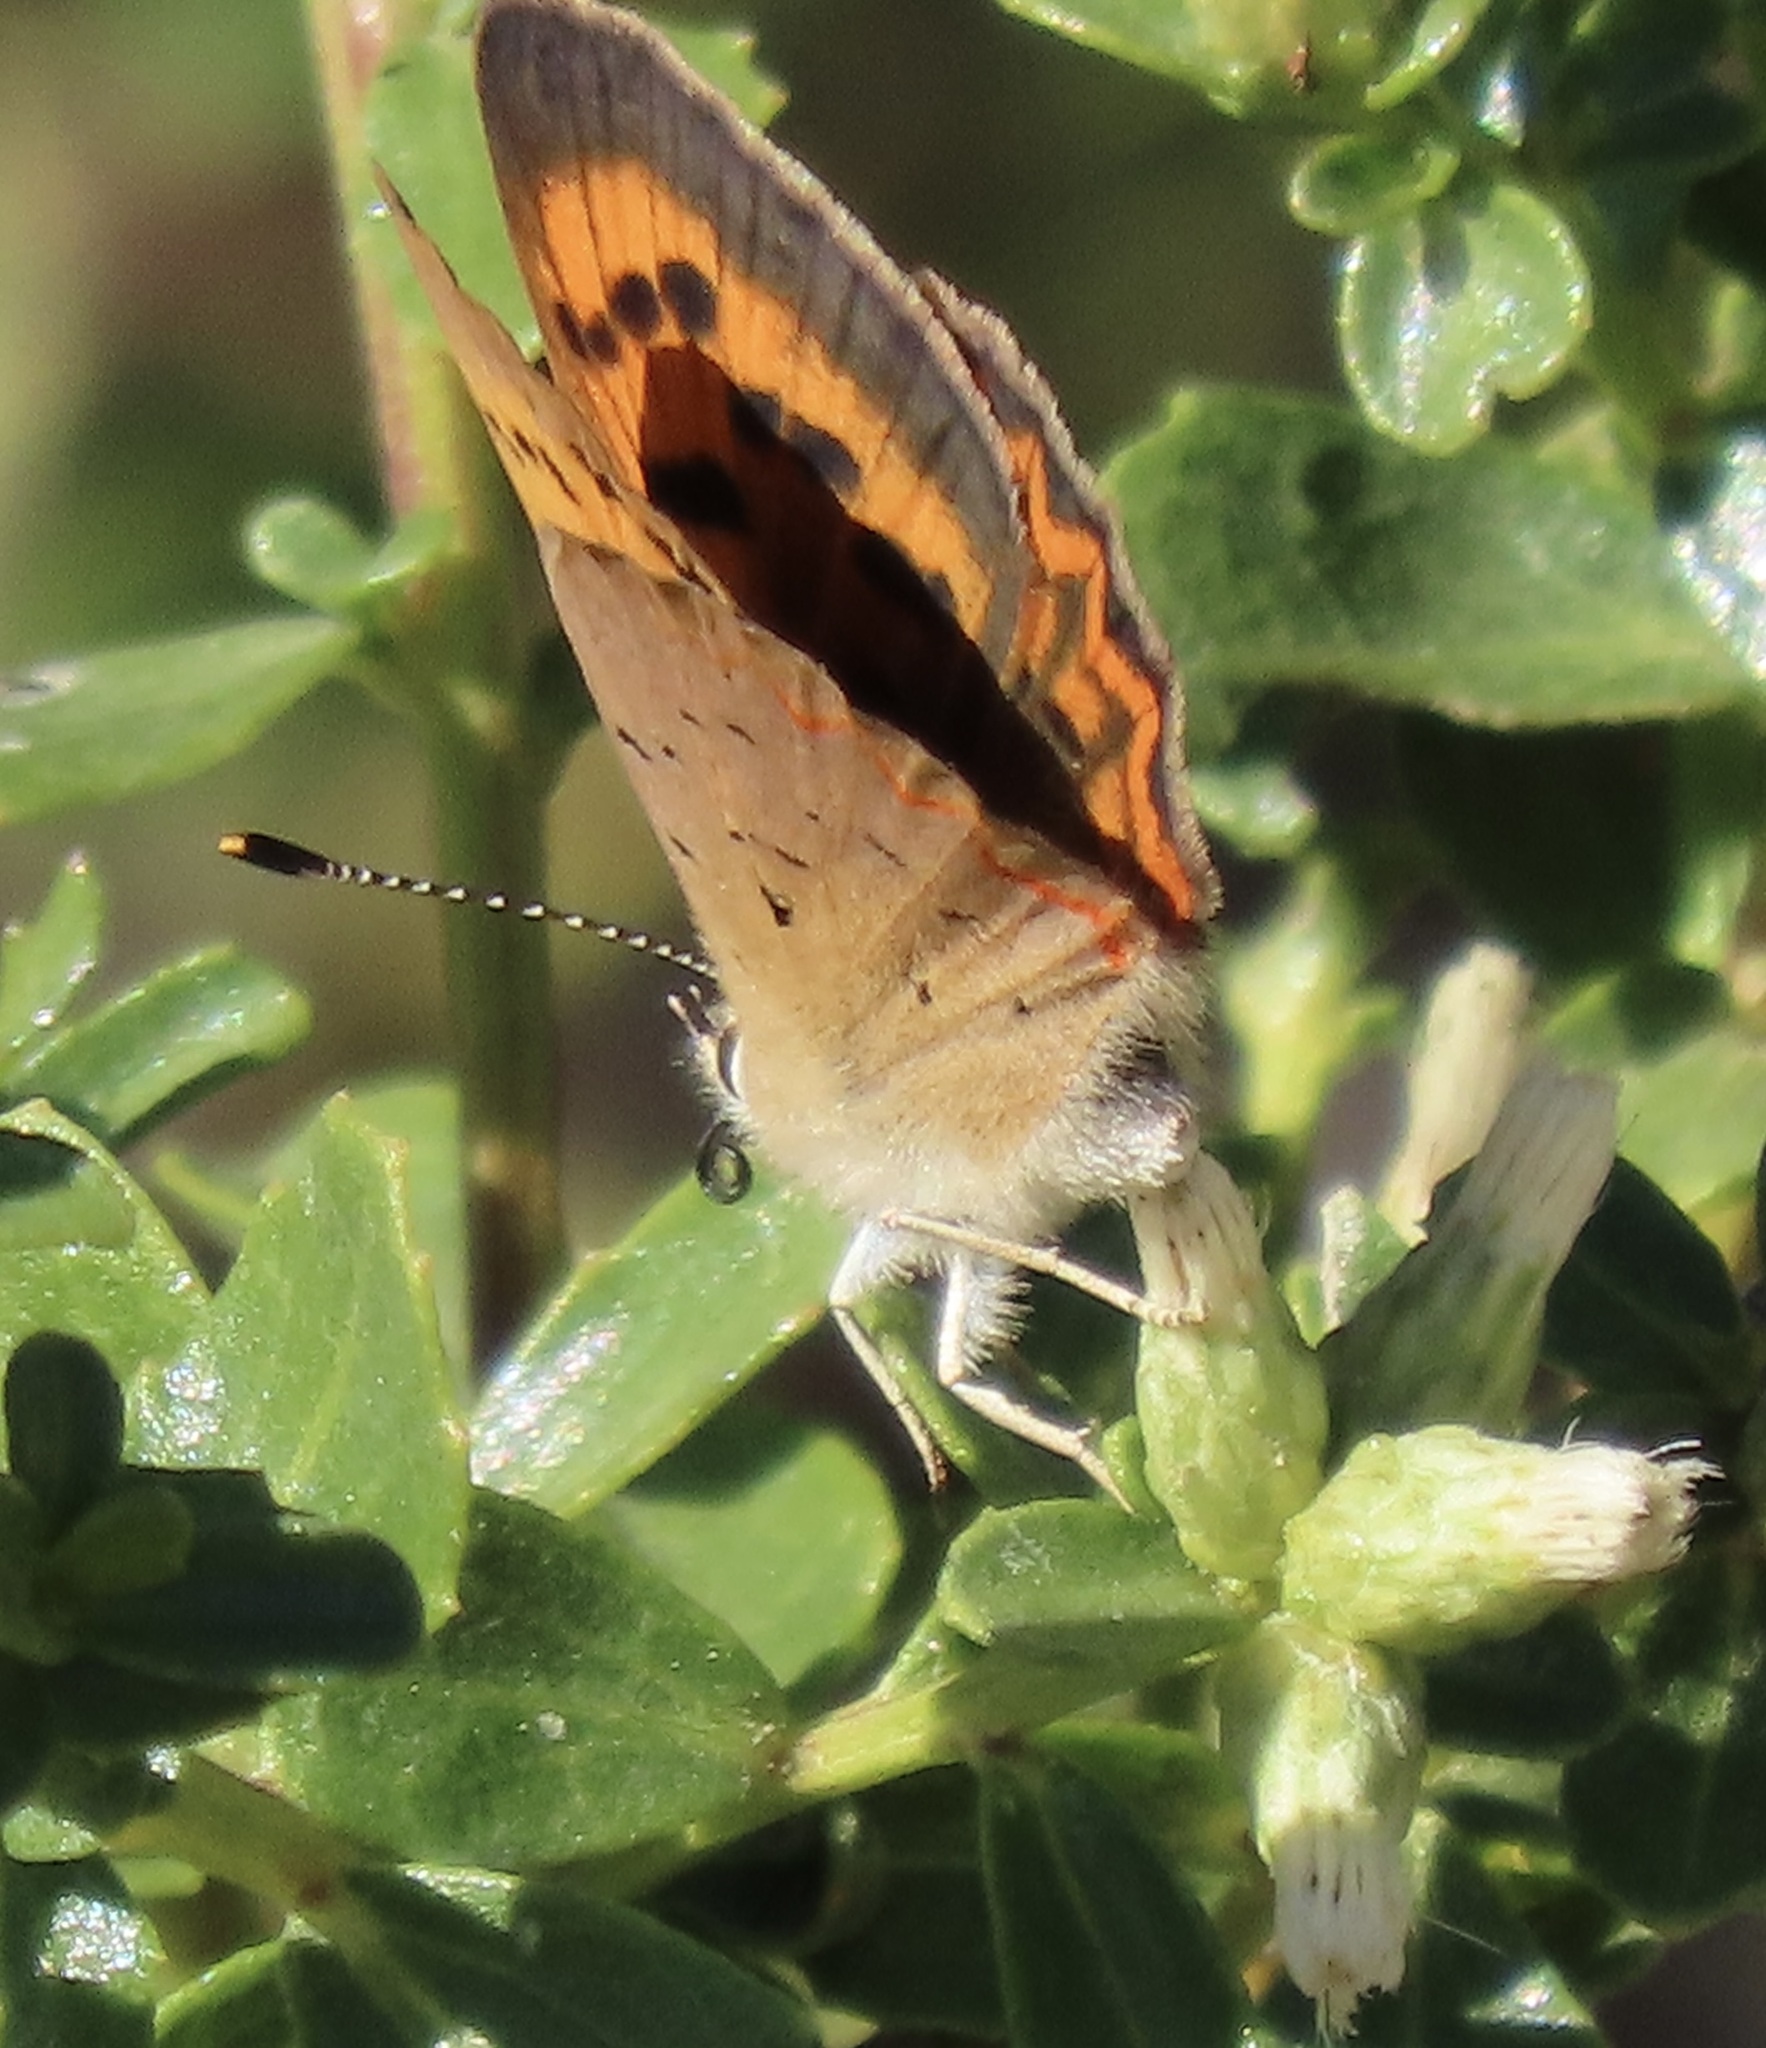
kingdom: Animalia
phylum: Arthropoda
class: Insecta
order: Lepidoptera
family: Lycaenidae
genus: Tharsalea
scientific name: Tharsalea helloides
